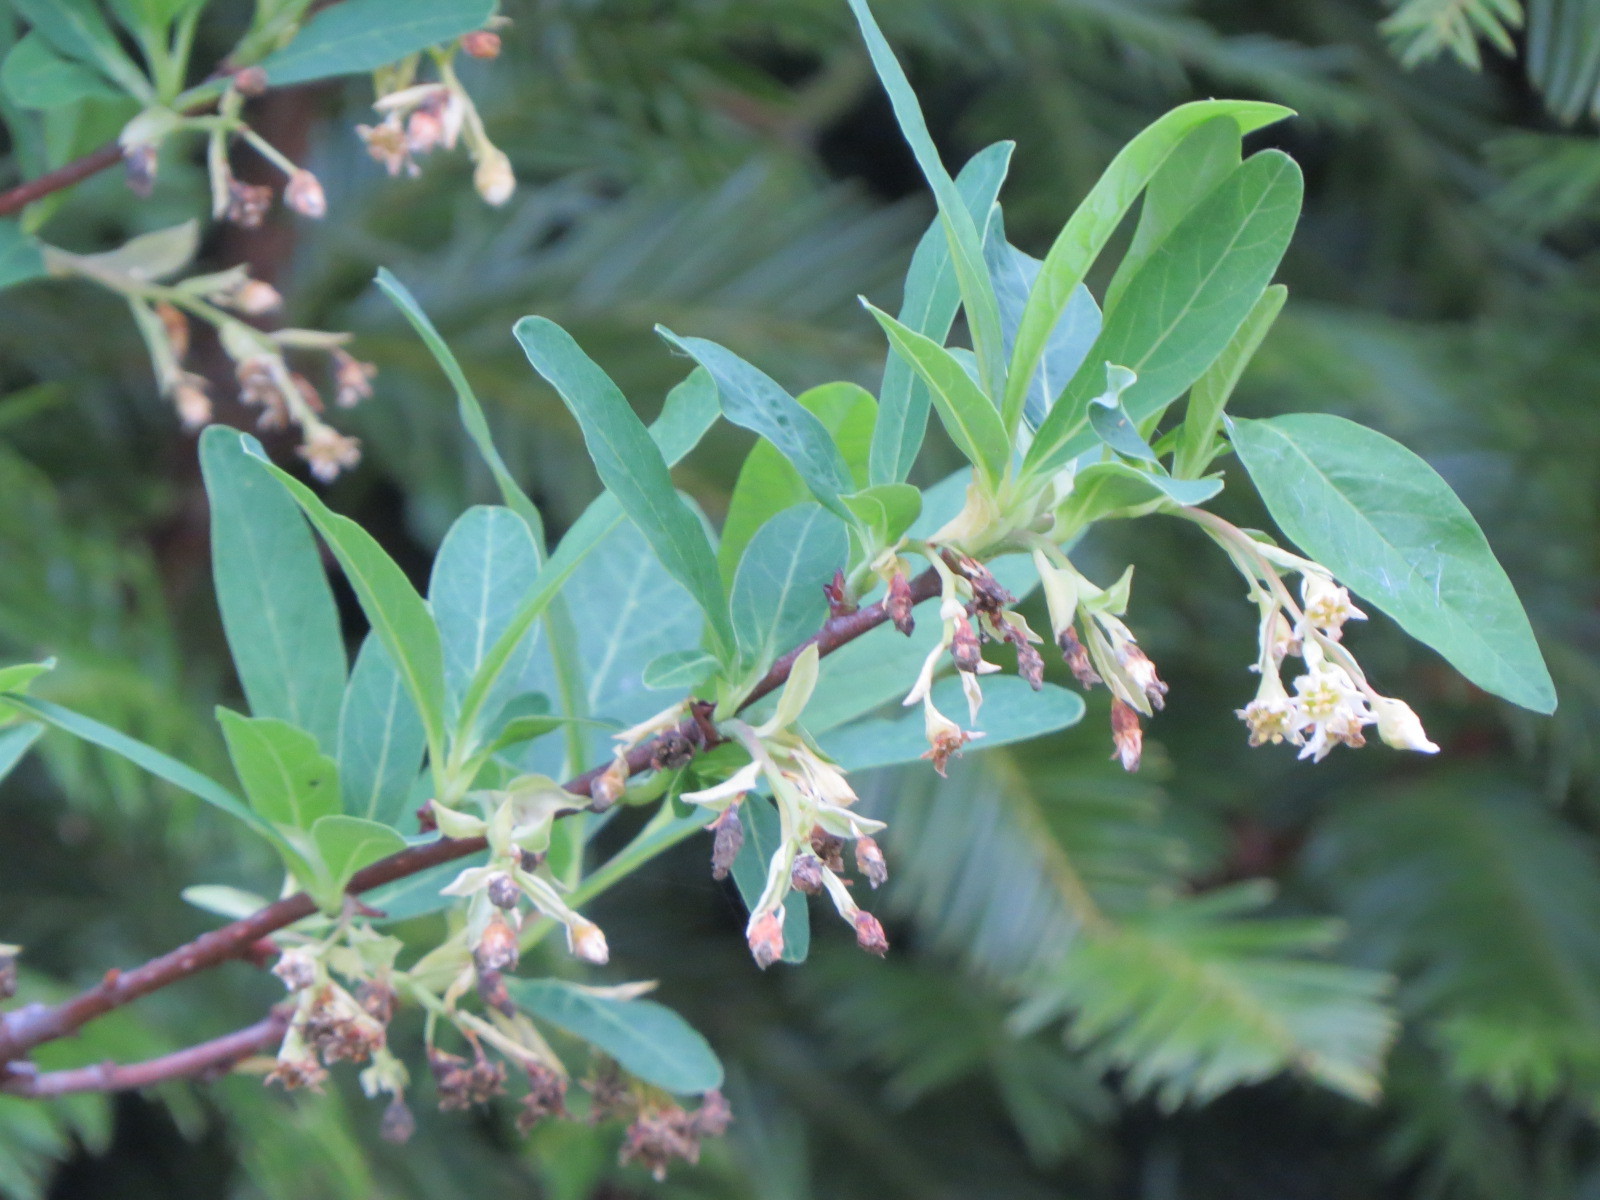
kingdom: Plantae
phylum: Tracheophyta
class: Magnoliopsida
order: Rosales
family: Rosaceae
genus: Oemleria
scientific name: Oemleria cerasiformis
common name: Osoberry
